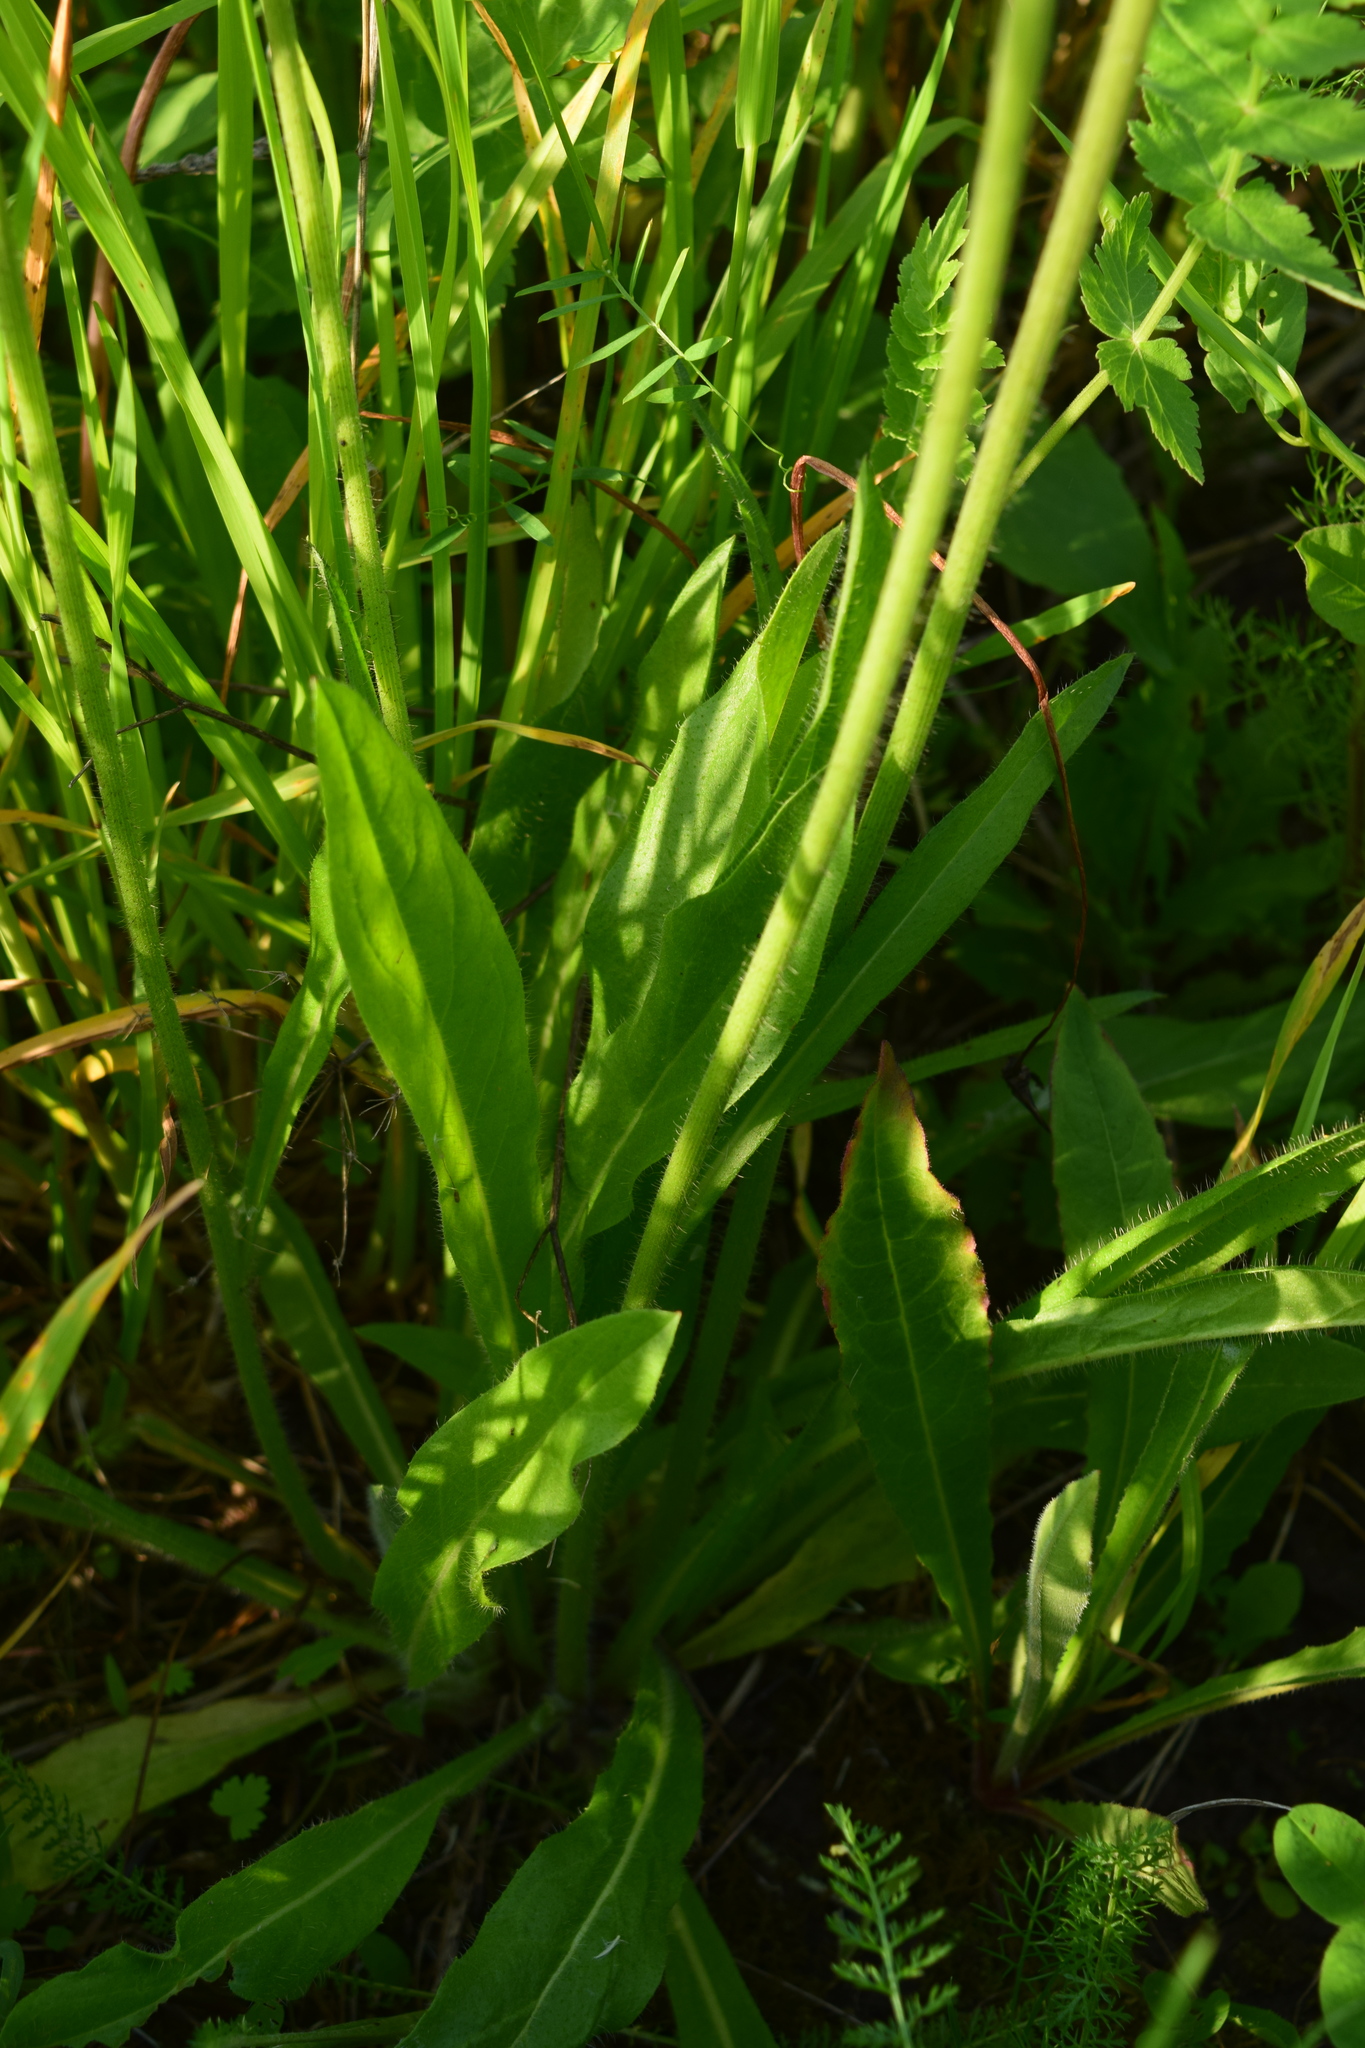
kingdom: Plantae
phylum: Tracheophyta
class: Magnoliopsida
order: Asterales
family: Asteraceae
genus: Pilosella
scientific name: Pilosella
